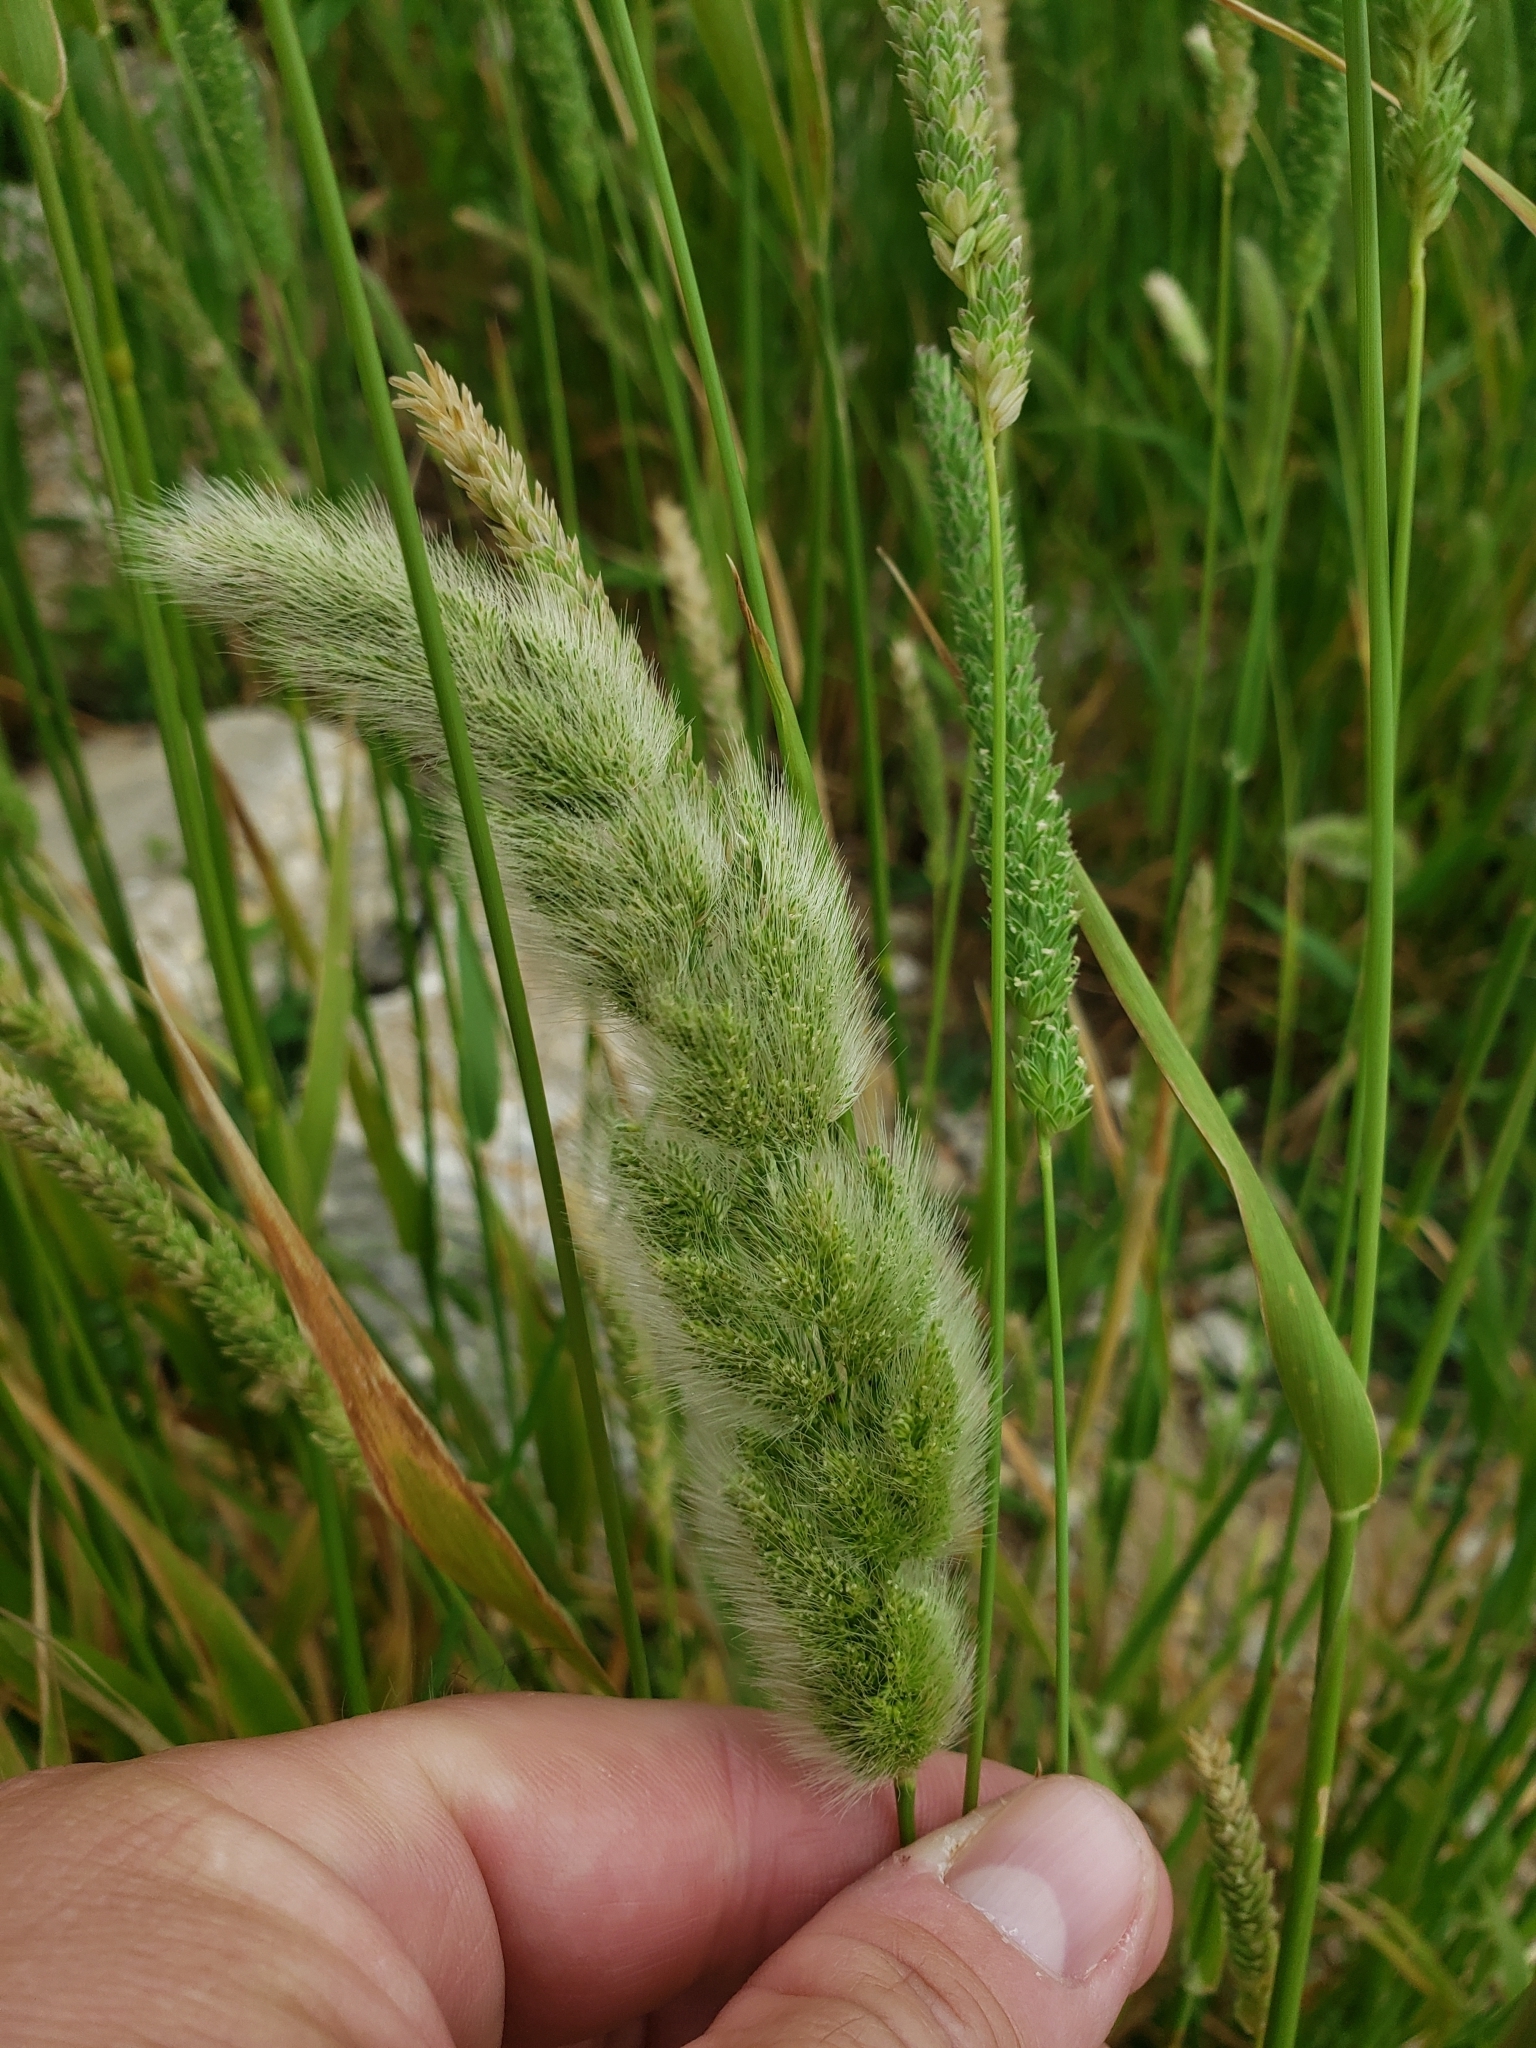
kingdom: Plantae
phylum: Tracheophyta
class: Liliopsida
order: Poales
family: Poaceae
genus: Polypogon
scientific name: Polypogon monspeliensis
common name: Annual rabbitsfoot grass
